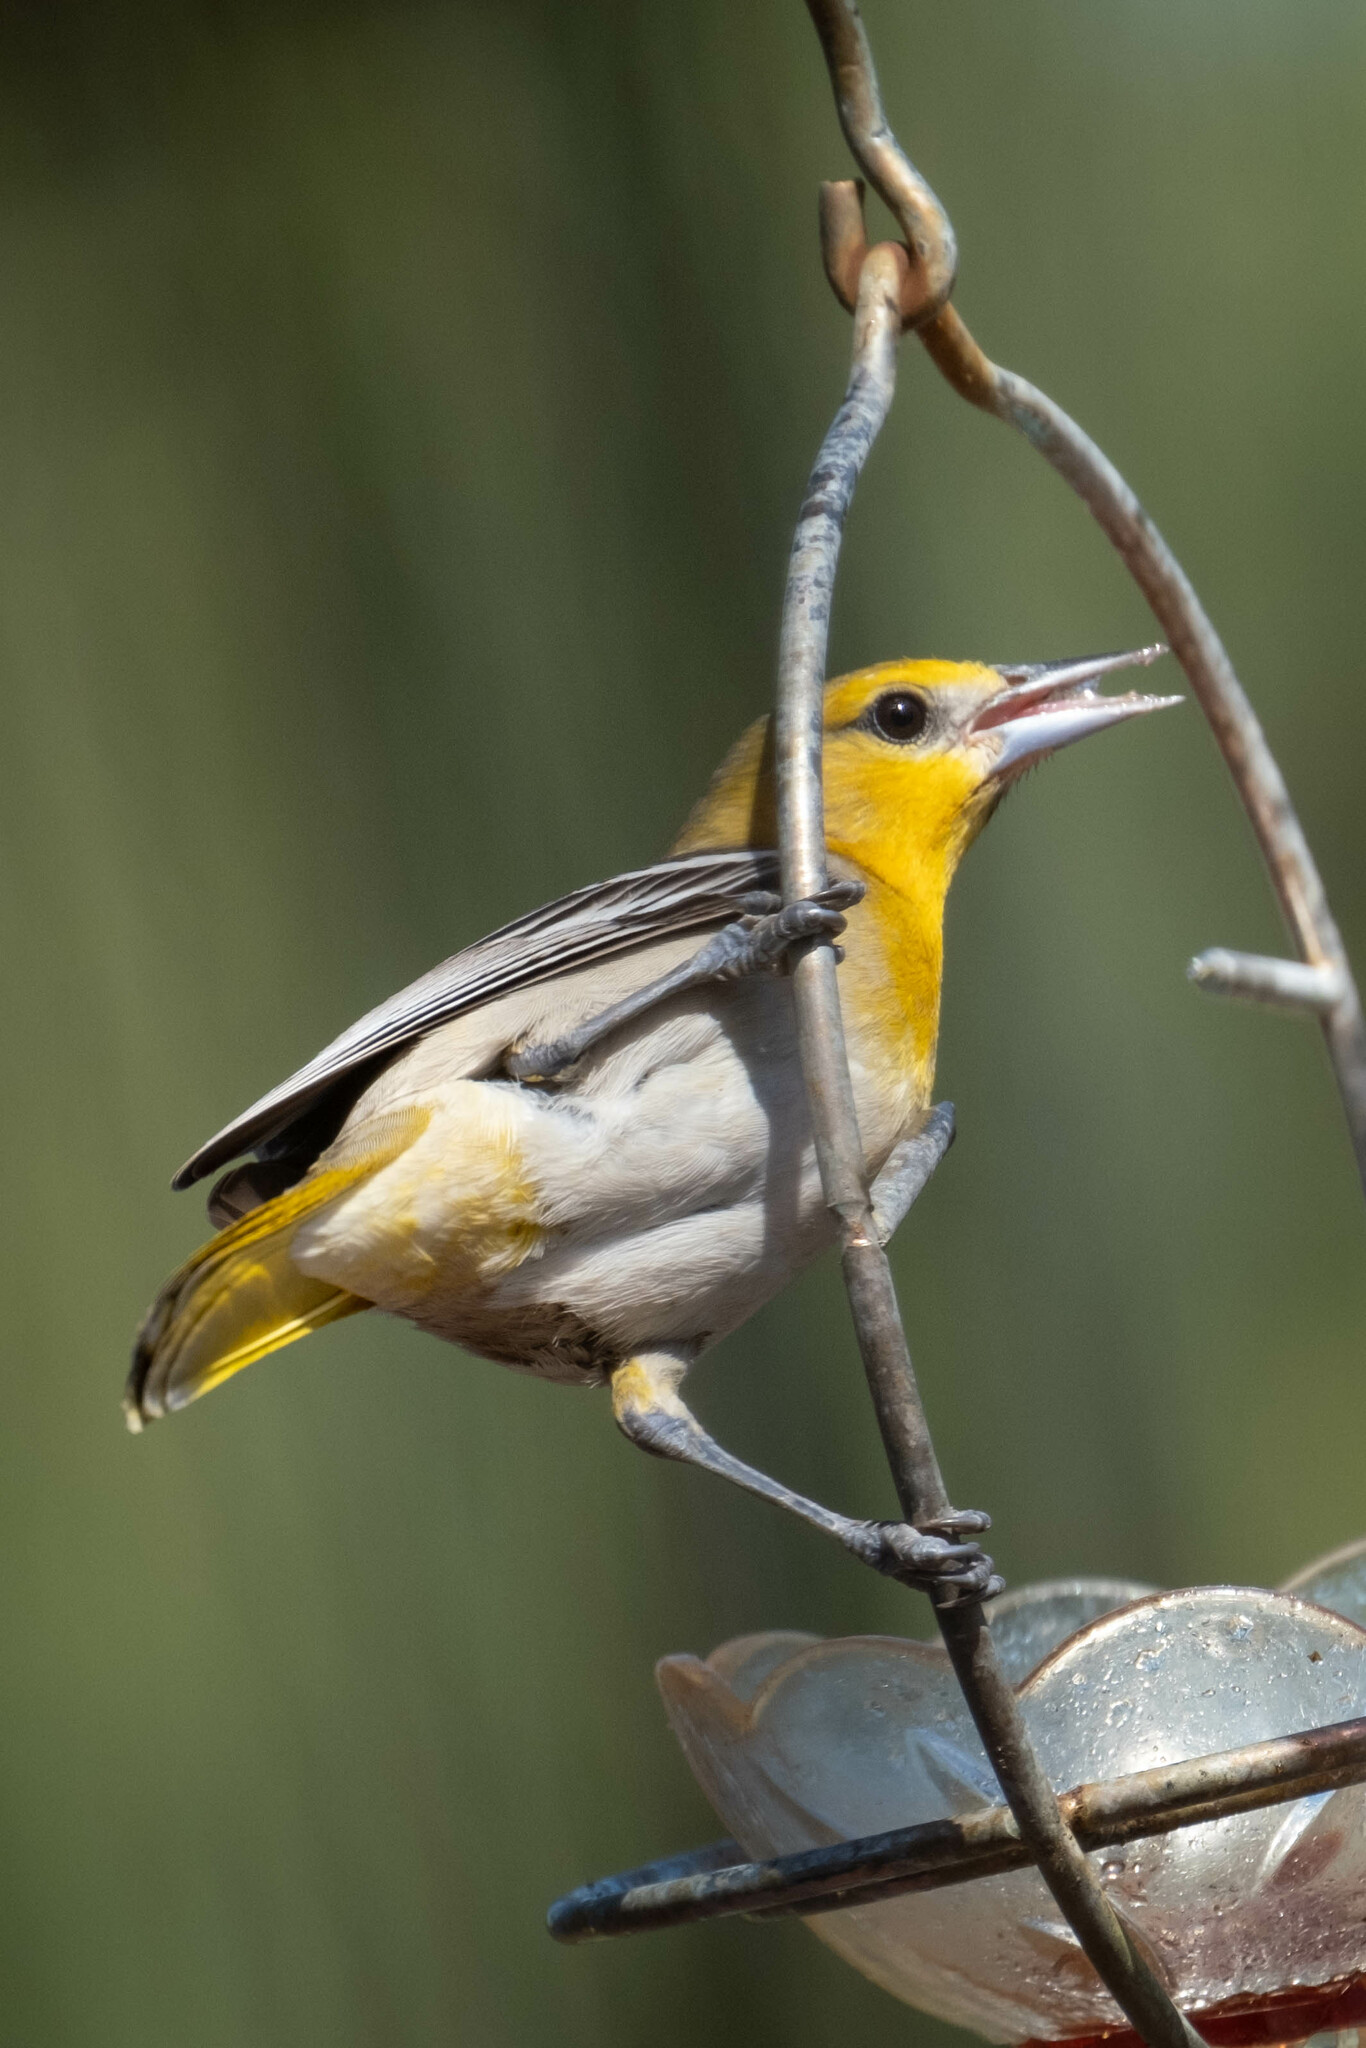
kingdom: Animalia
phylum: Chordata
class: Aves
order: Passeriformes
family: Icteridae
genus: Icterus
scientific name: Icterus bullockii
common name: Bullock's oriole
